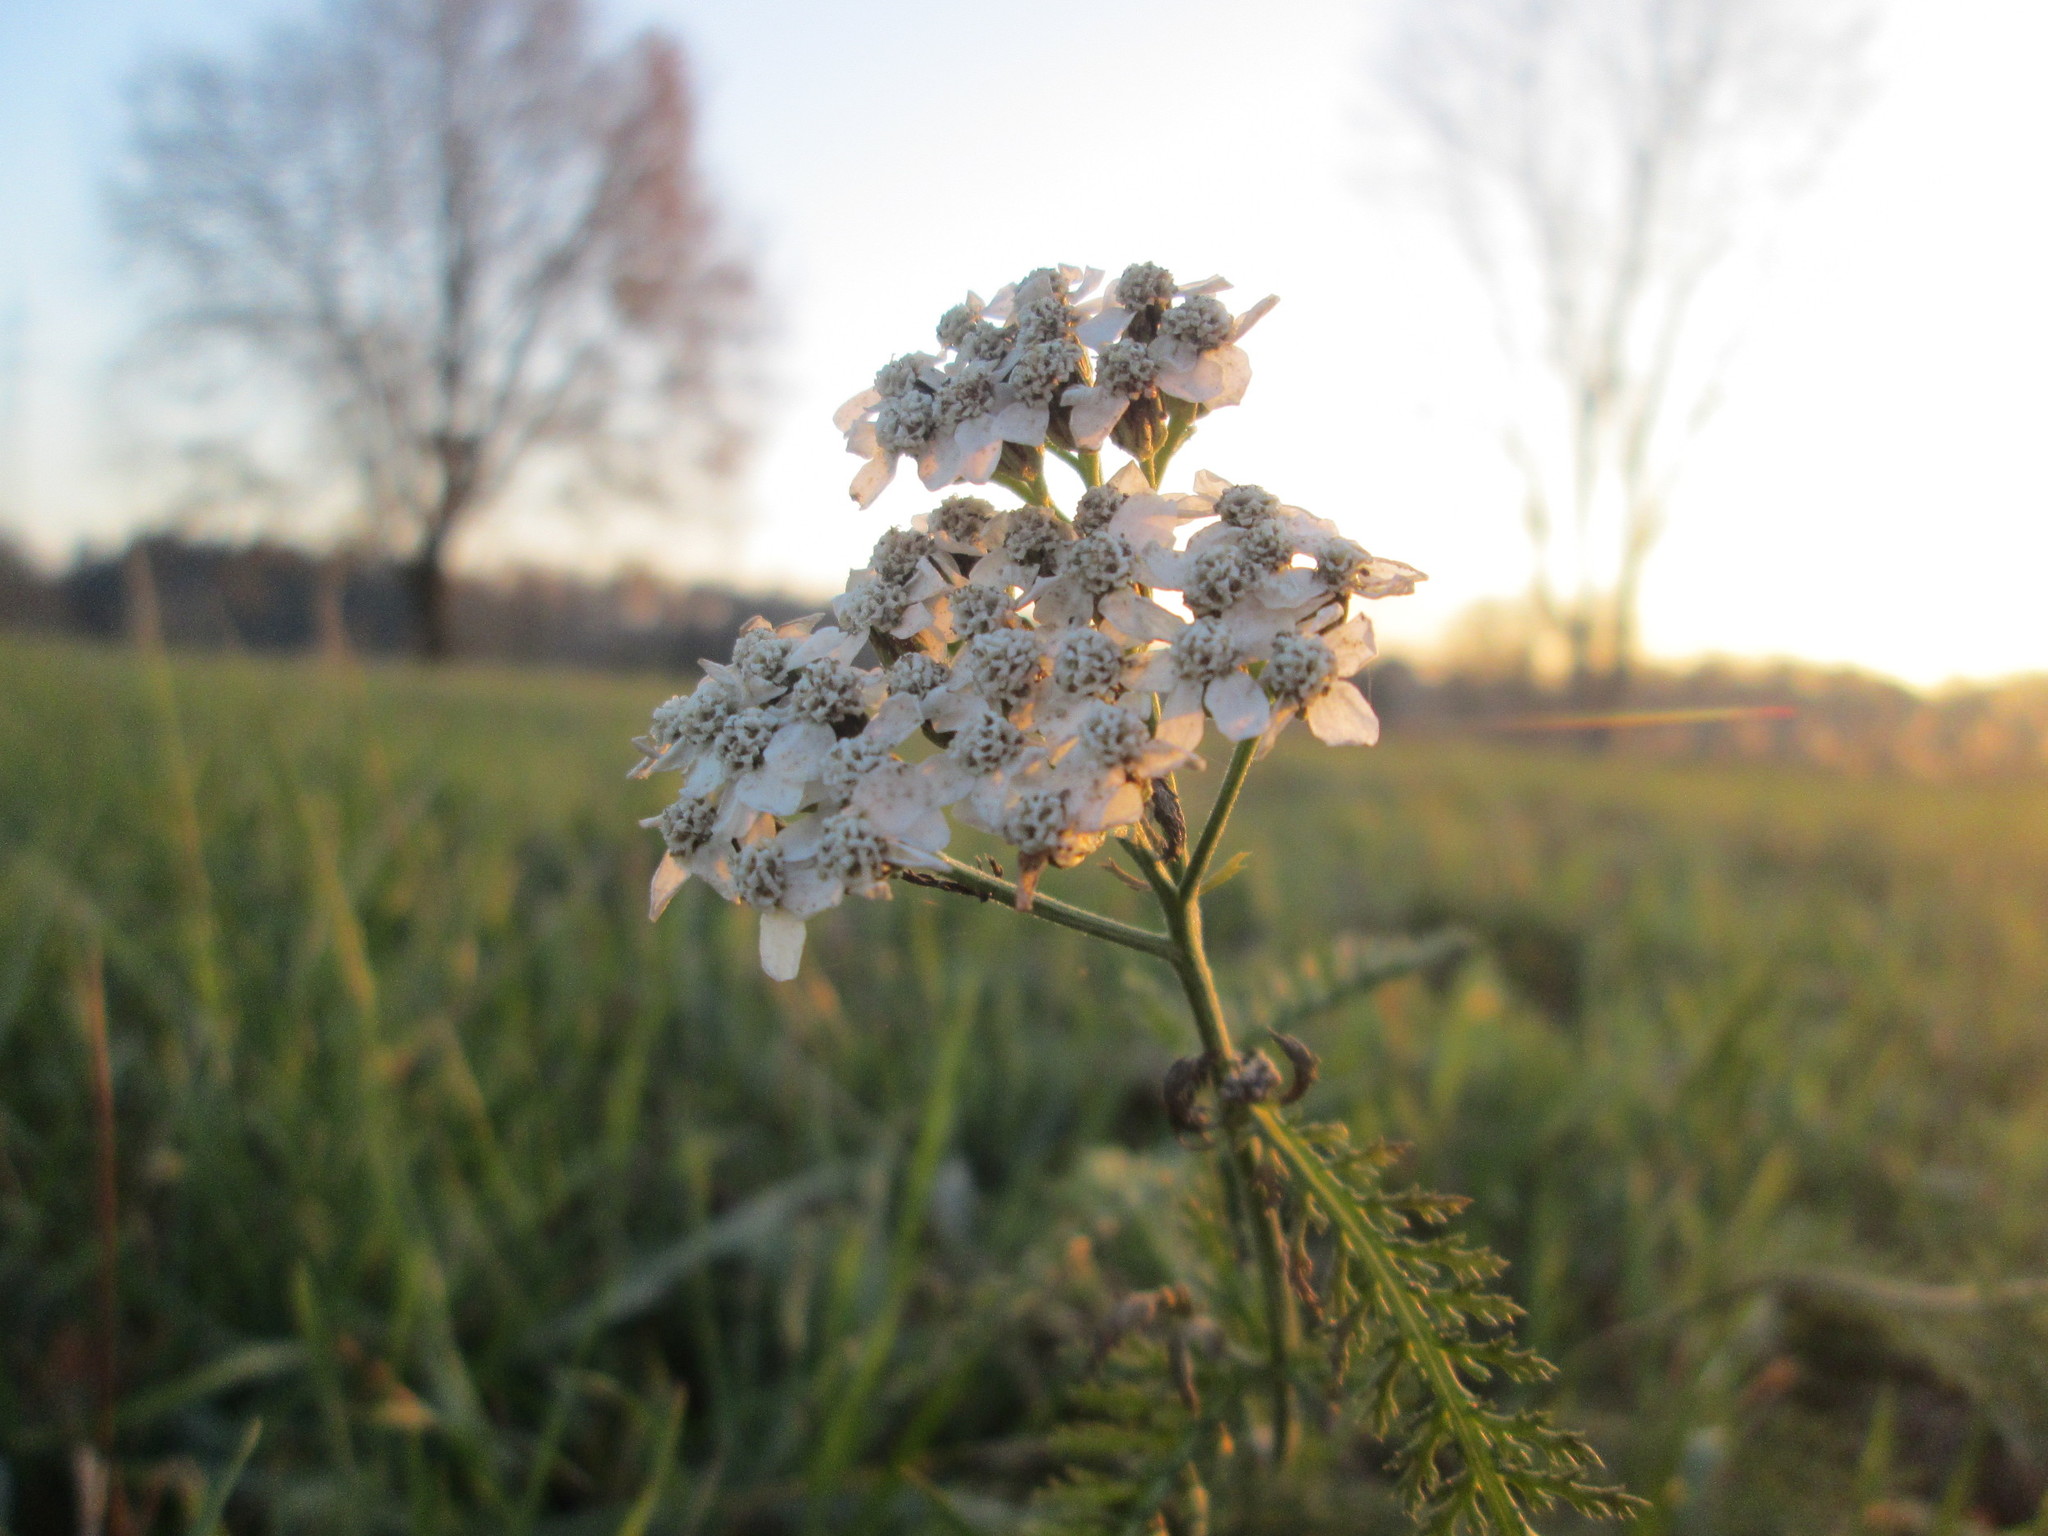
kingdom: Plantae
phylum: Tracheophyta
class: Magnoliopsida
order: Asterales
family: Asteraceae
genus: Achillea
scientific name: Achillea millefolium
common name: Yarrow
